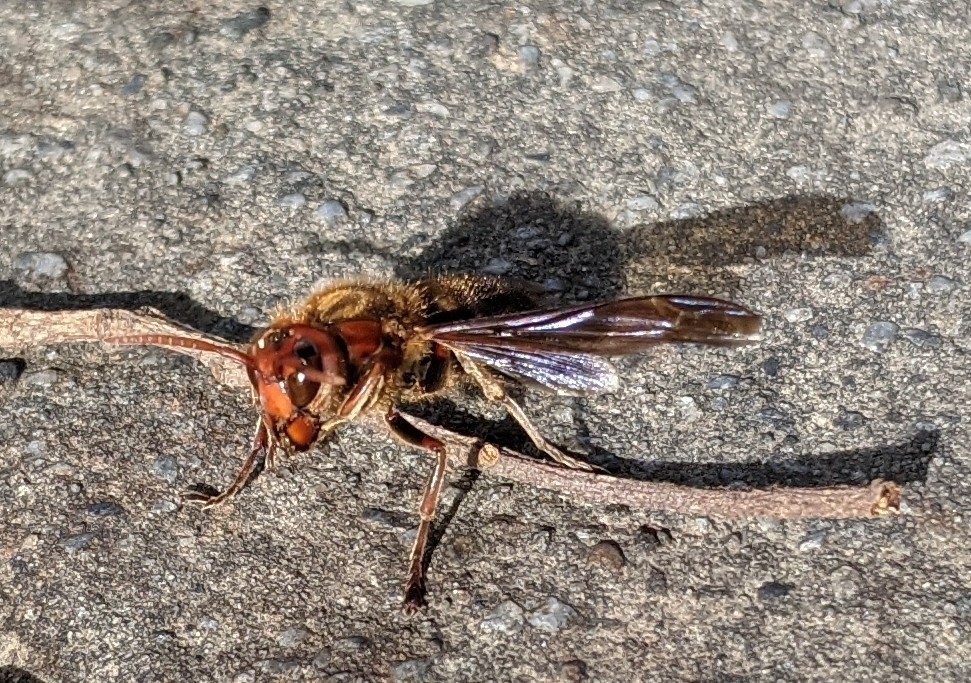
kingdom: Animalia
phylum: Arthropoda
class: Insecta
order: Hymenoptera
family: Vespidae
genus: Vespa
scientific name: Vespa basalis
